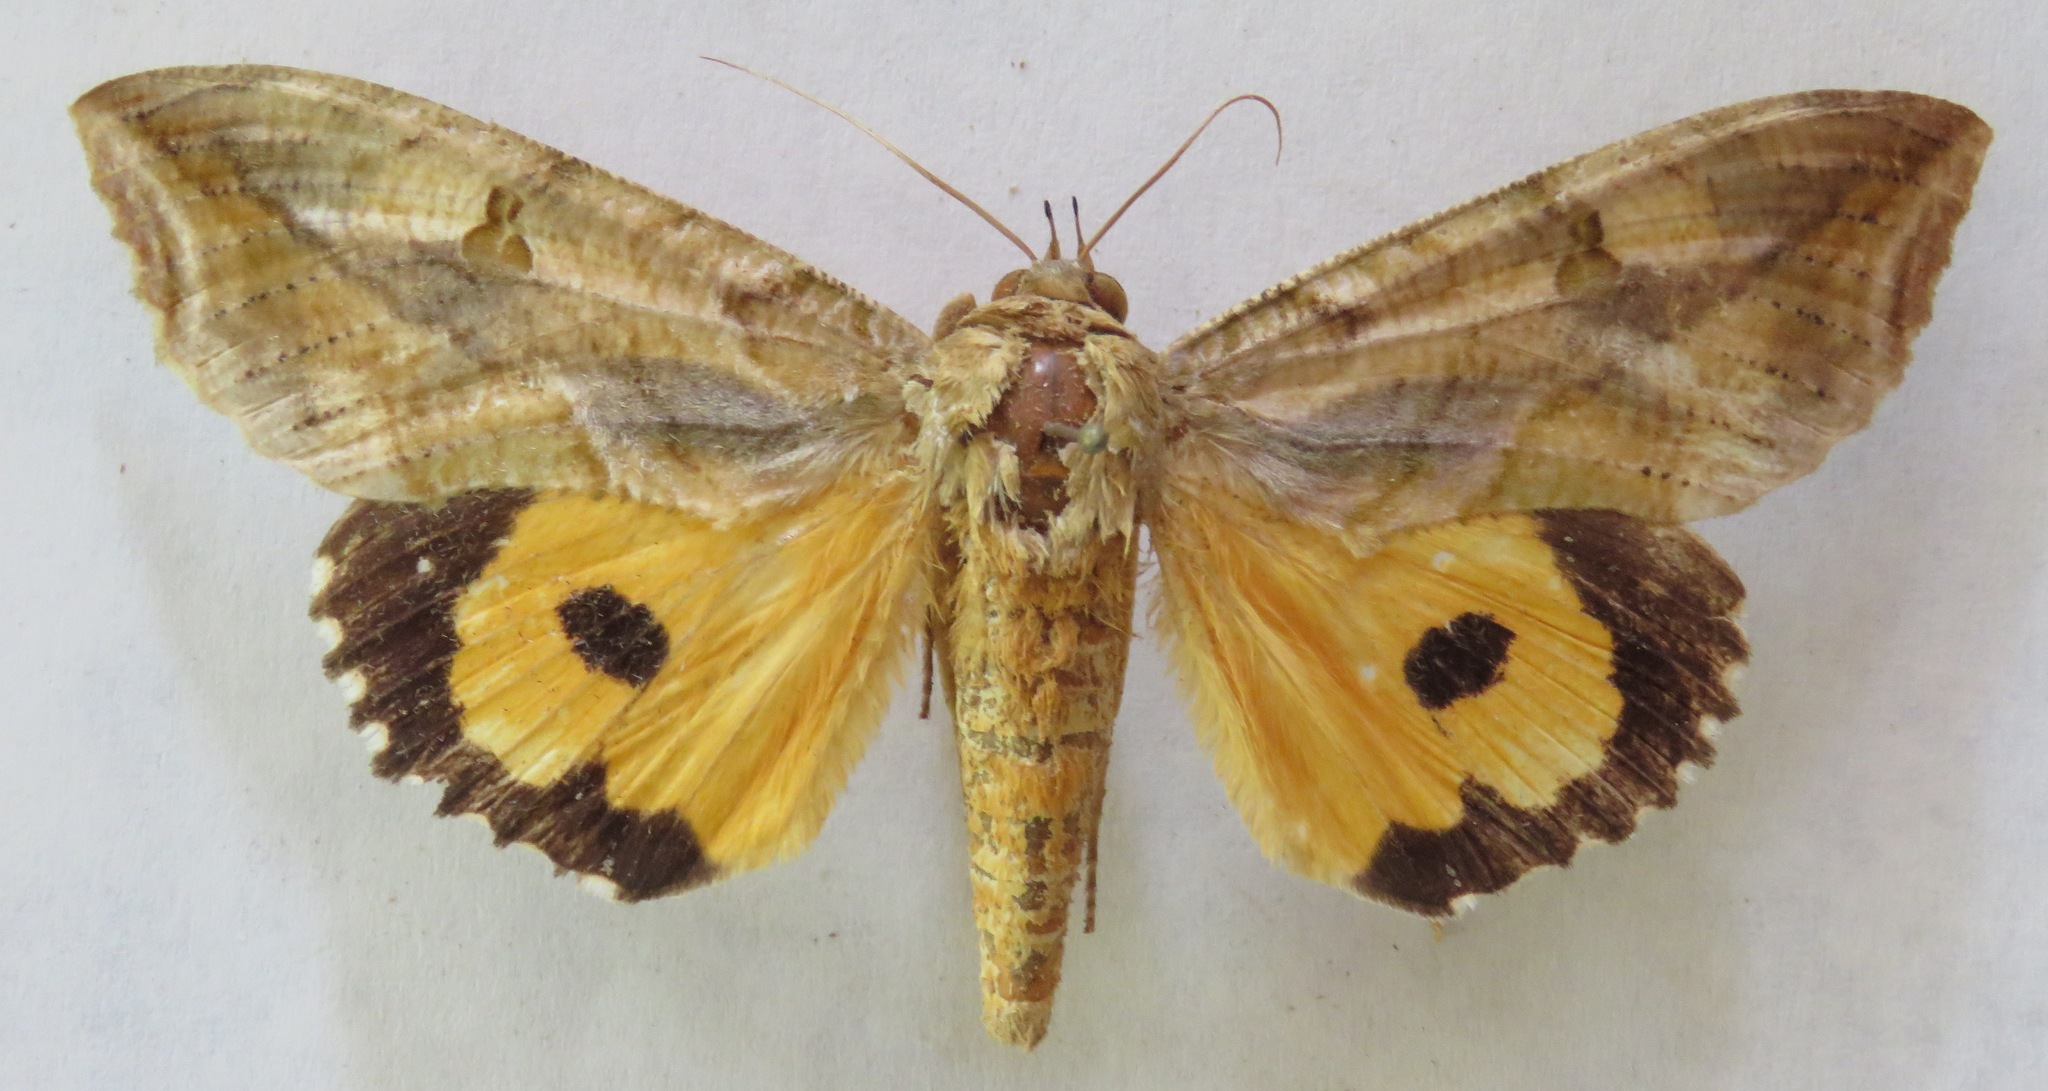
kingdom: Animalia
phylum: Arthropoda
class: Insecta
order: Lepidoptera
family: Erebidae
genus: Eudocima
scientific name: Eudocima apta
